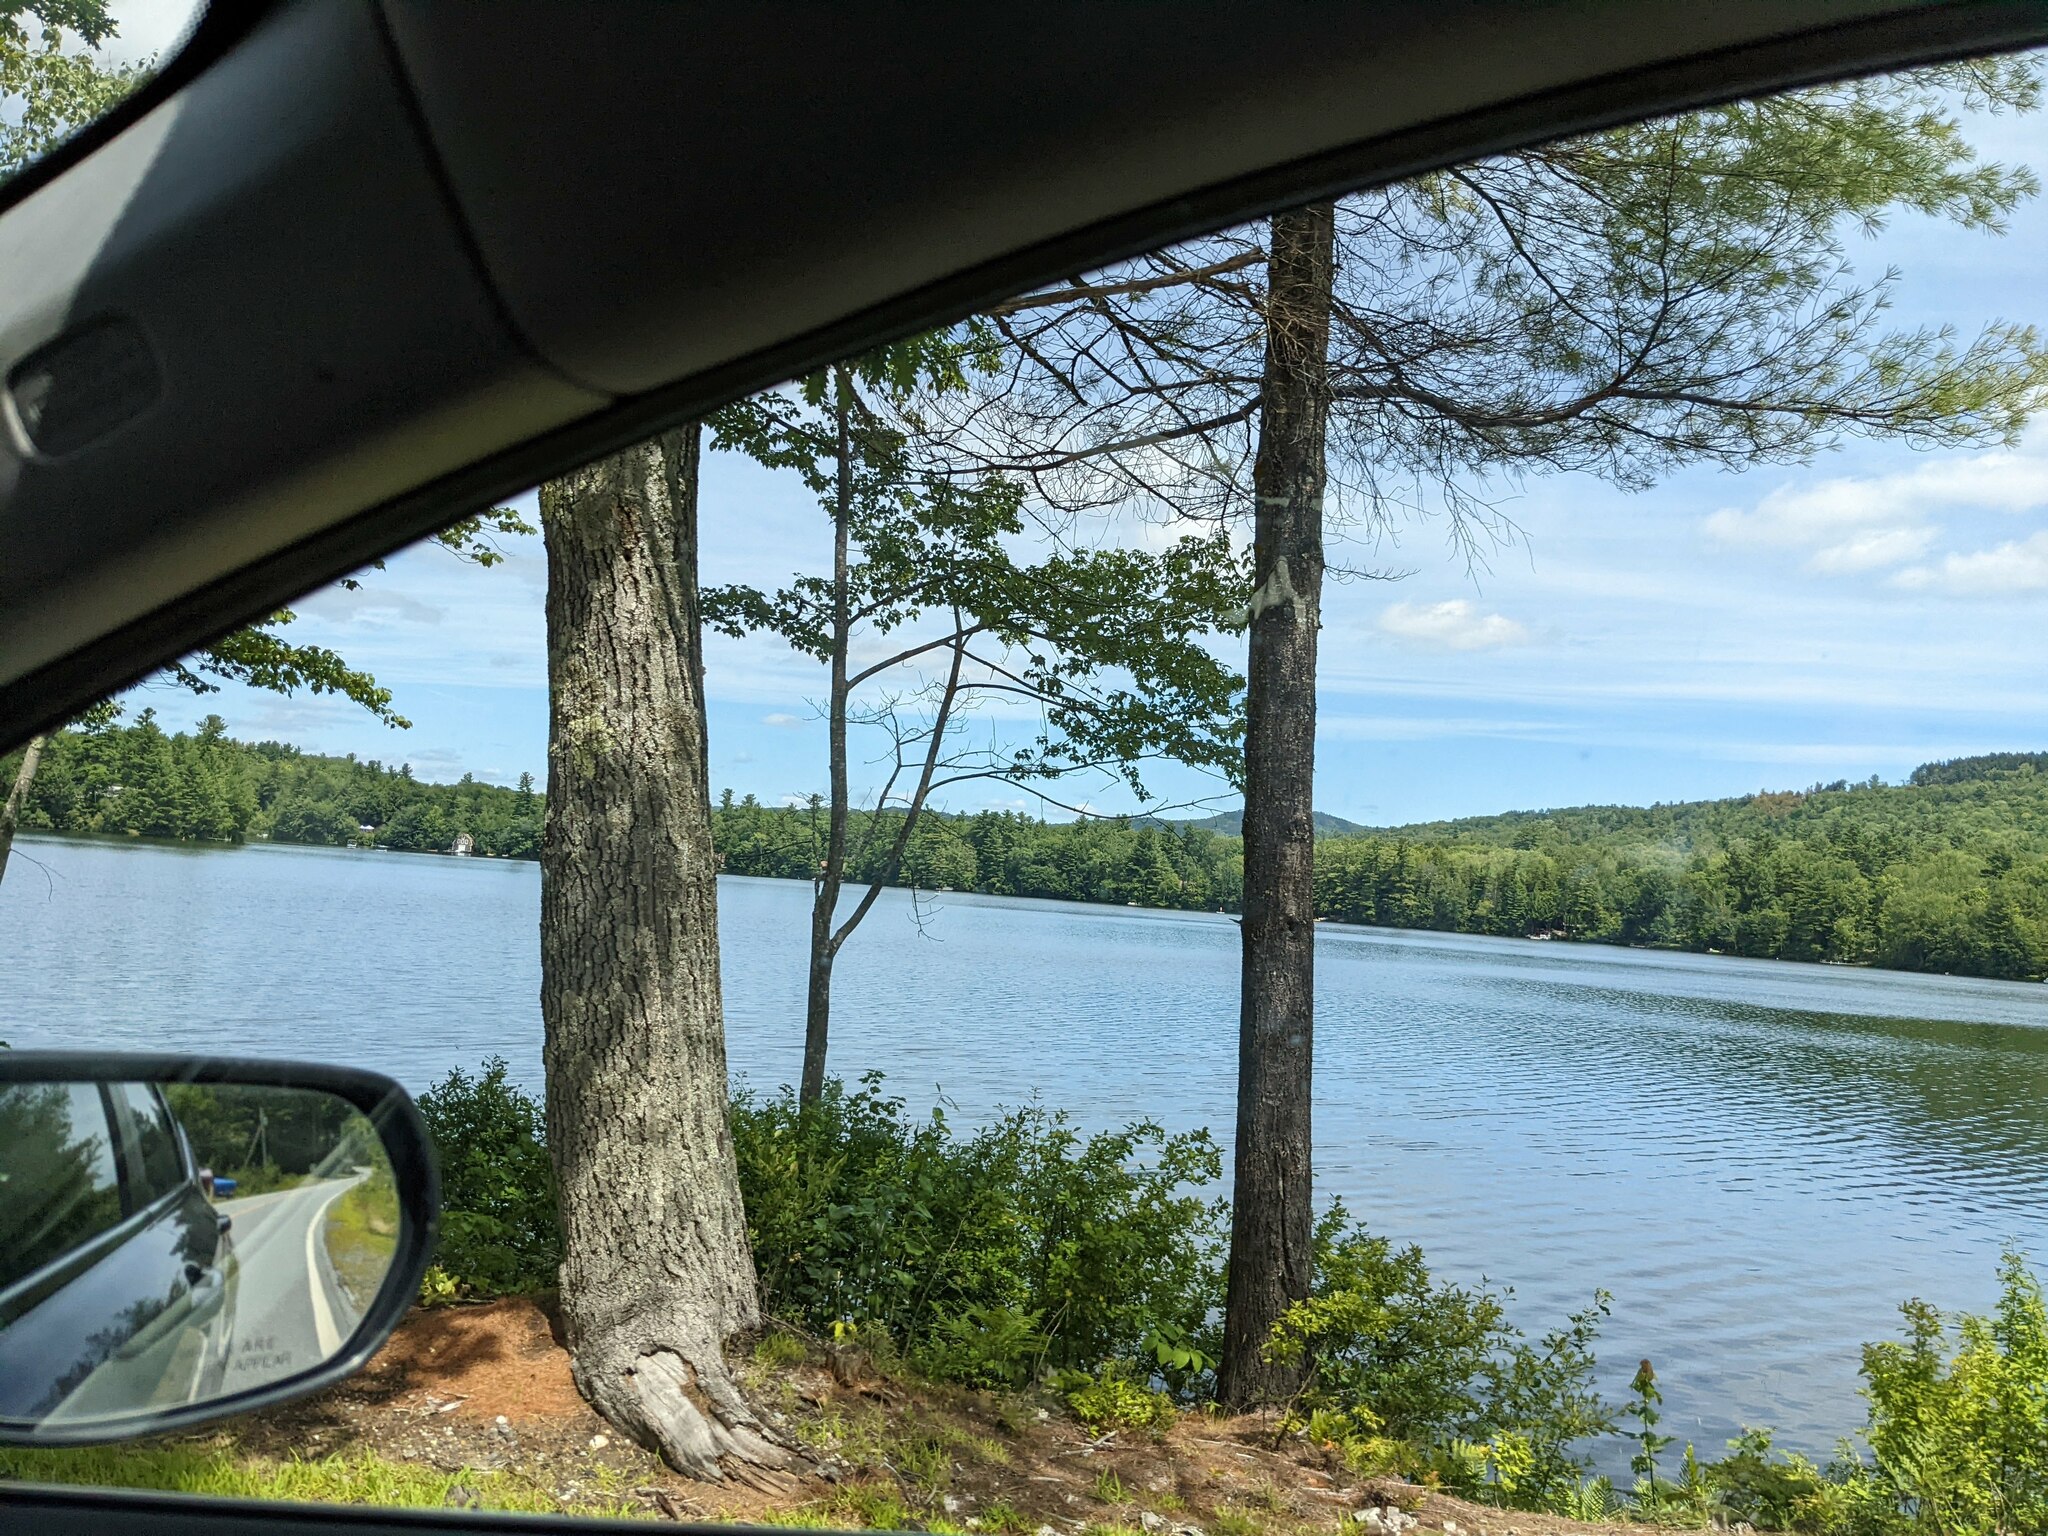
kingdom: Plantae
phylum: Tracheophyta
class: Pinopsida
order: Pinales
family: Pinaceae
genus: Pinus
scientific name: Pinus strobus
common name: Weymouth pine
